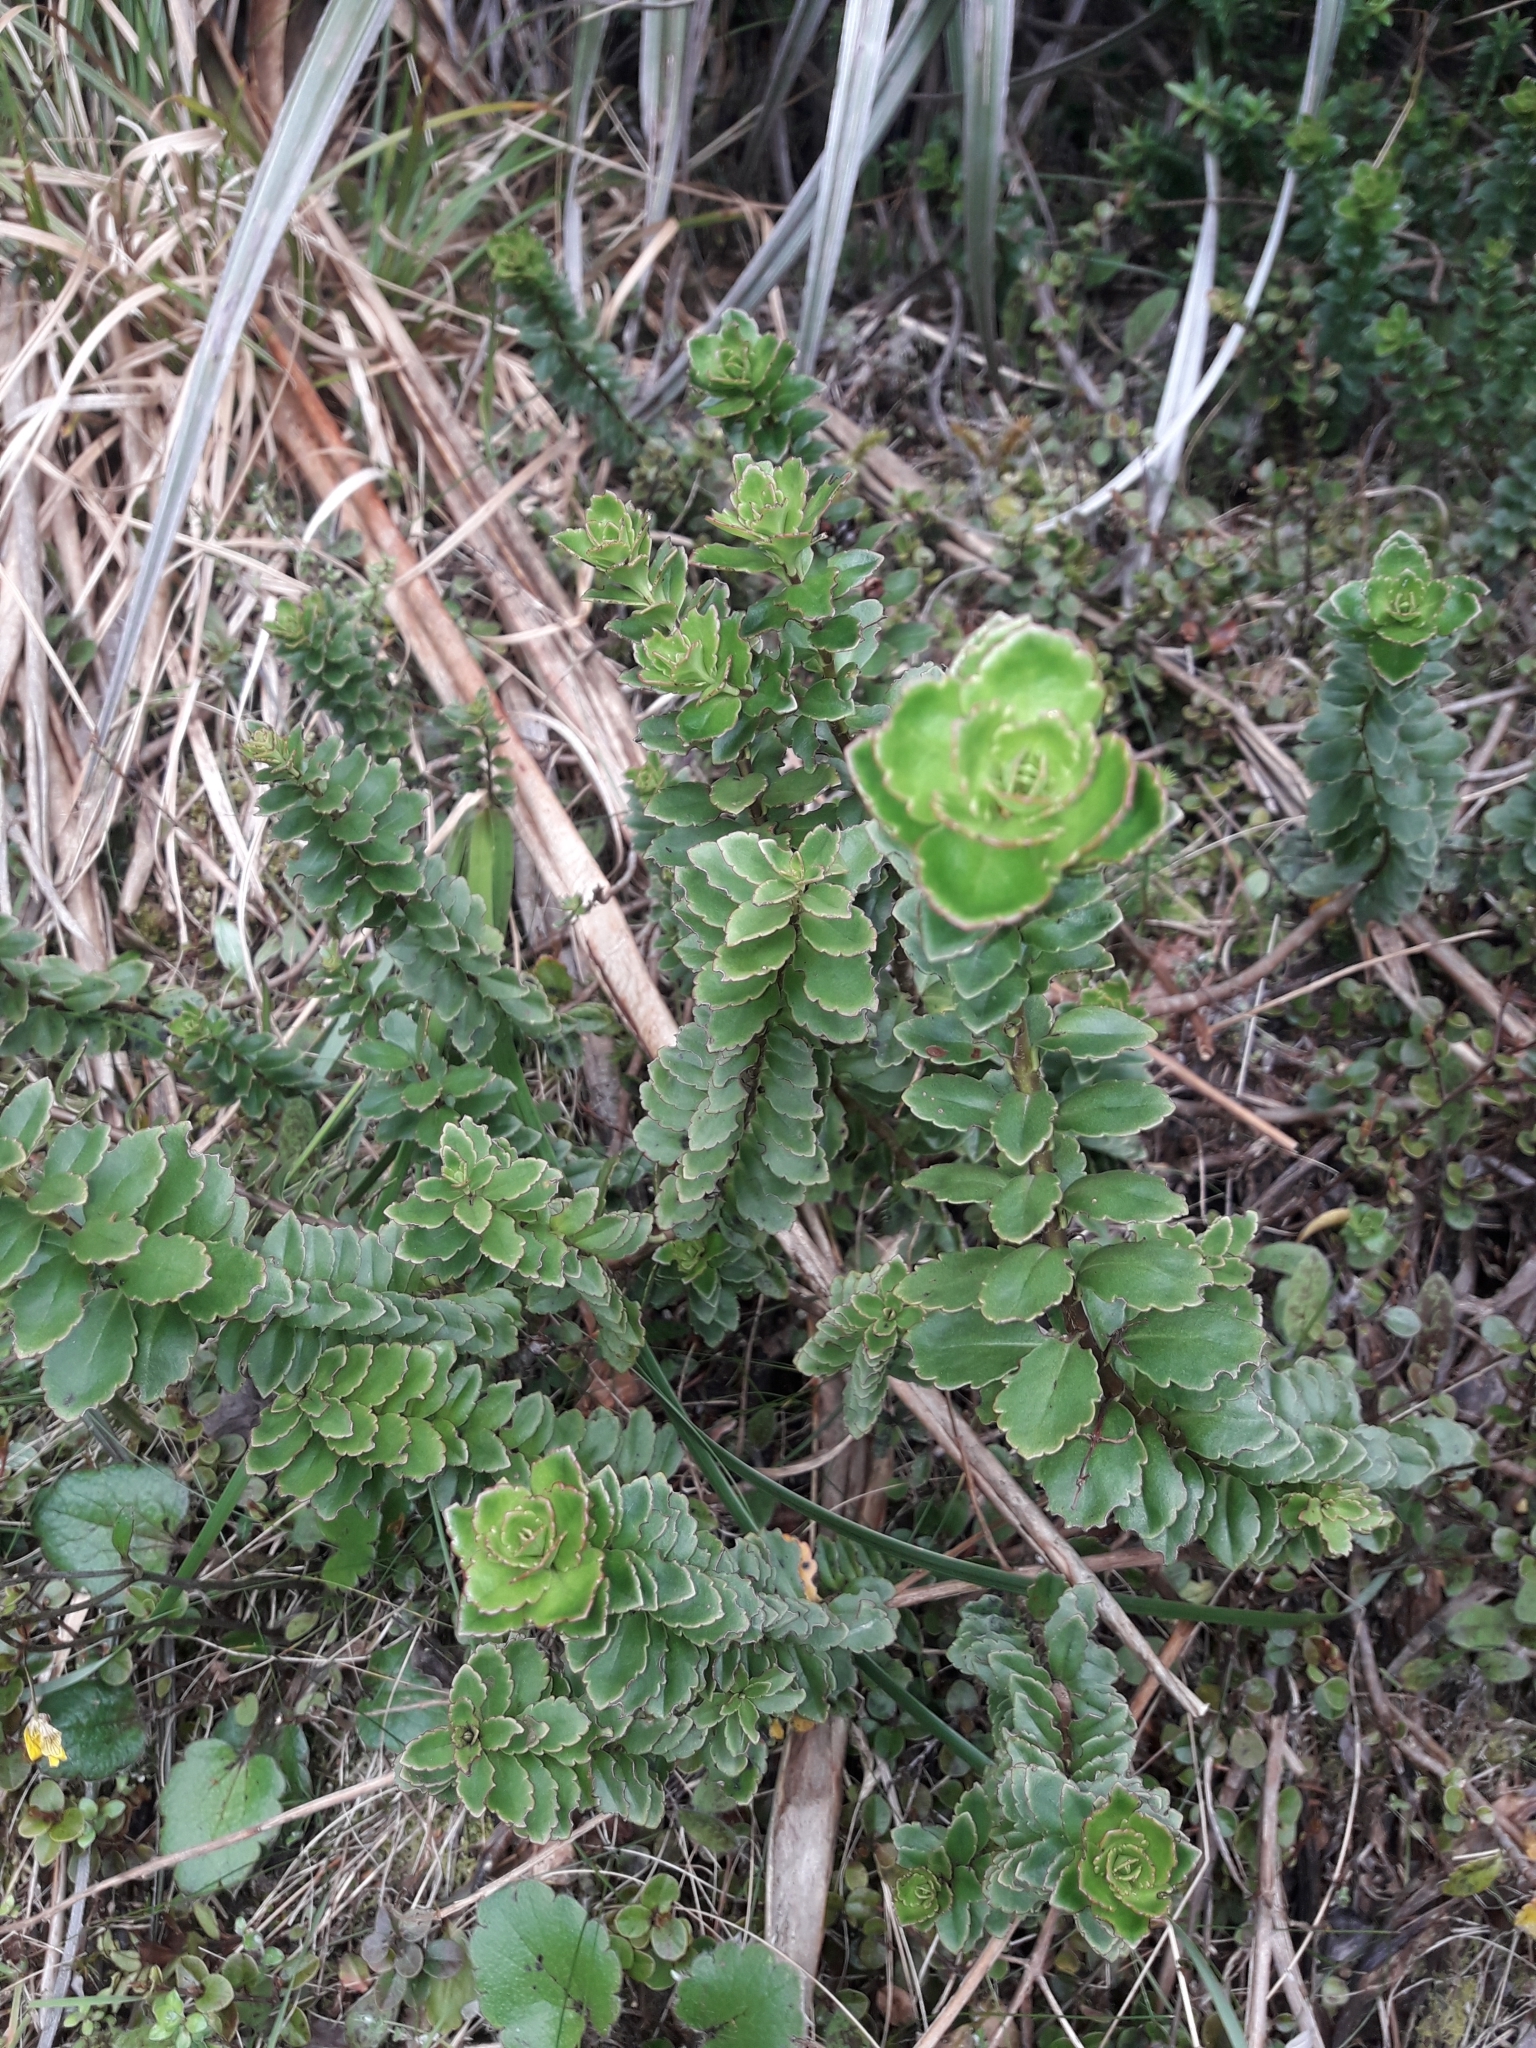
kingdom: Plantae
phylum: Tracheophyta
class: Magnoliopsida
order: Lamiales
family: Plantaginaceae
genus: Veronica
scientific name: Veronica macrantha
